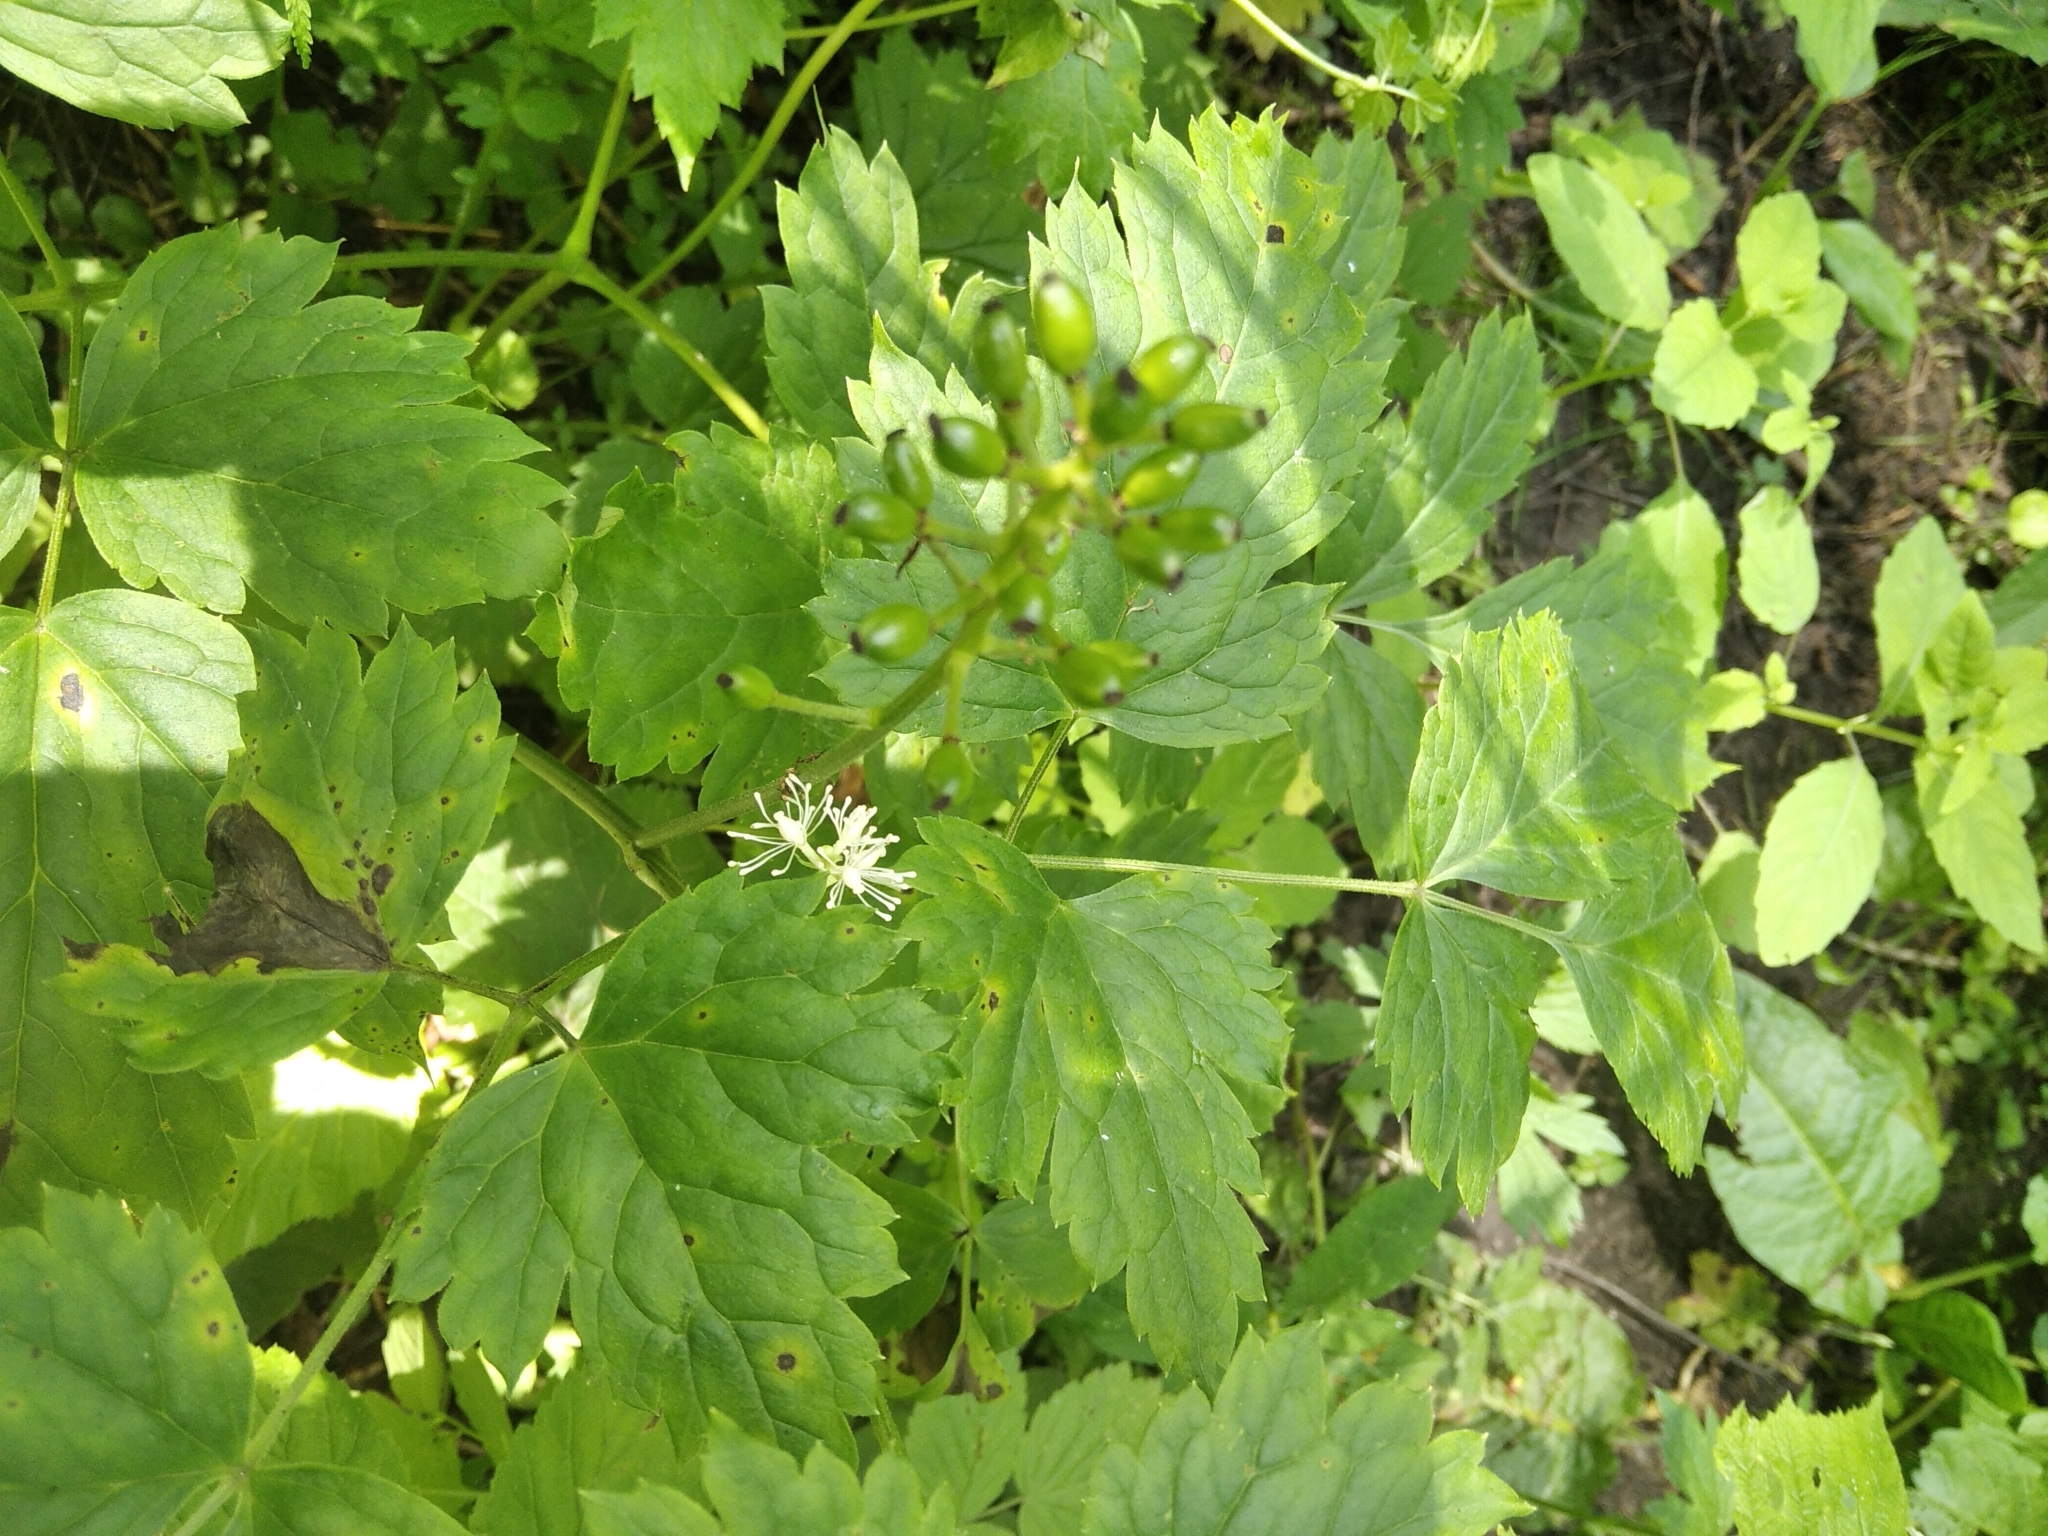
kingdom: Plantae
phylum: Tracheophyta
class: Magnoliopsida
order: Ranunculales
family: Ranunculaceae
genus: Actaea
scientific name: Actaea spicata
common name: Baneberry
